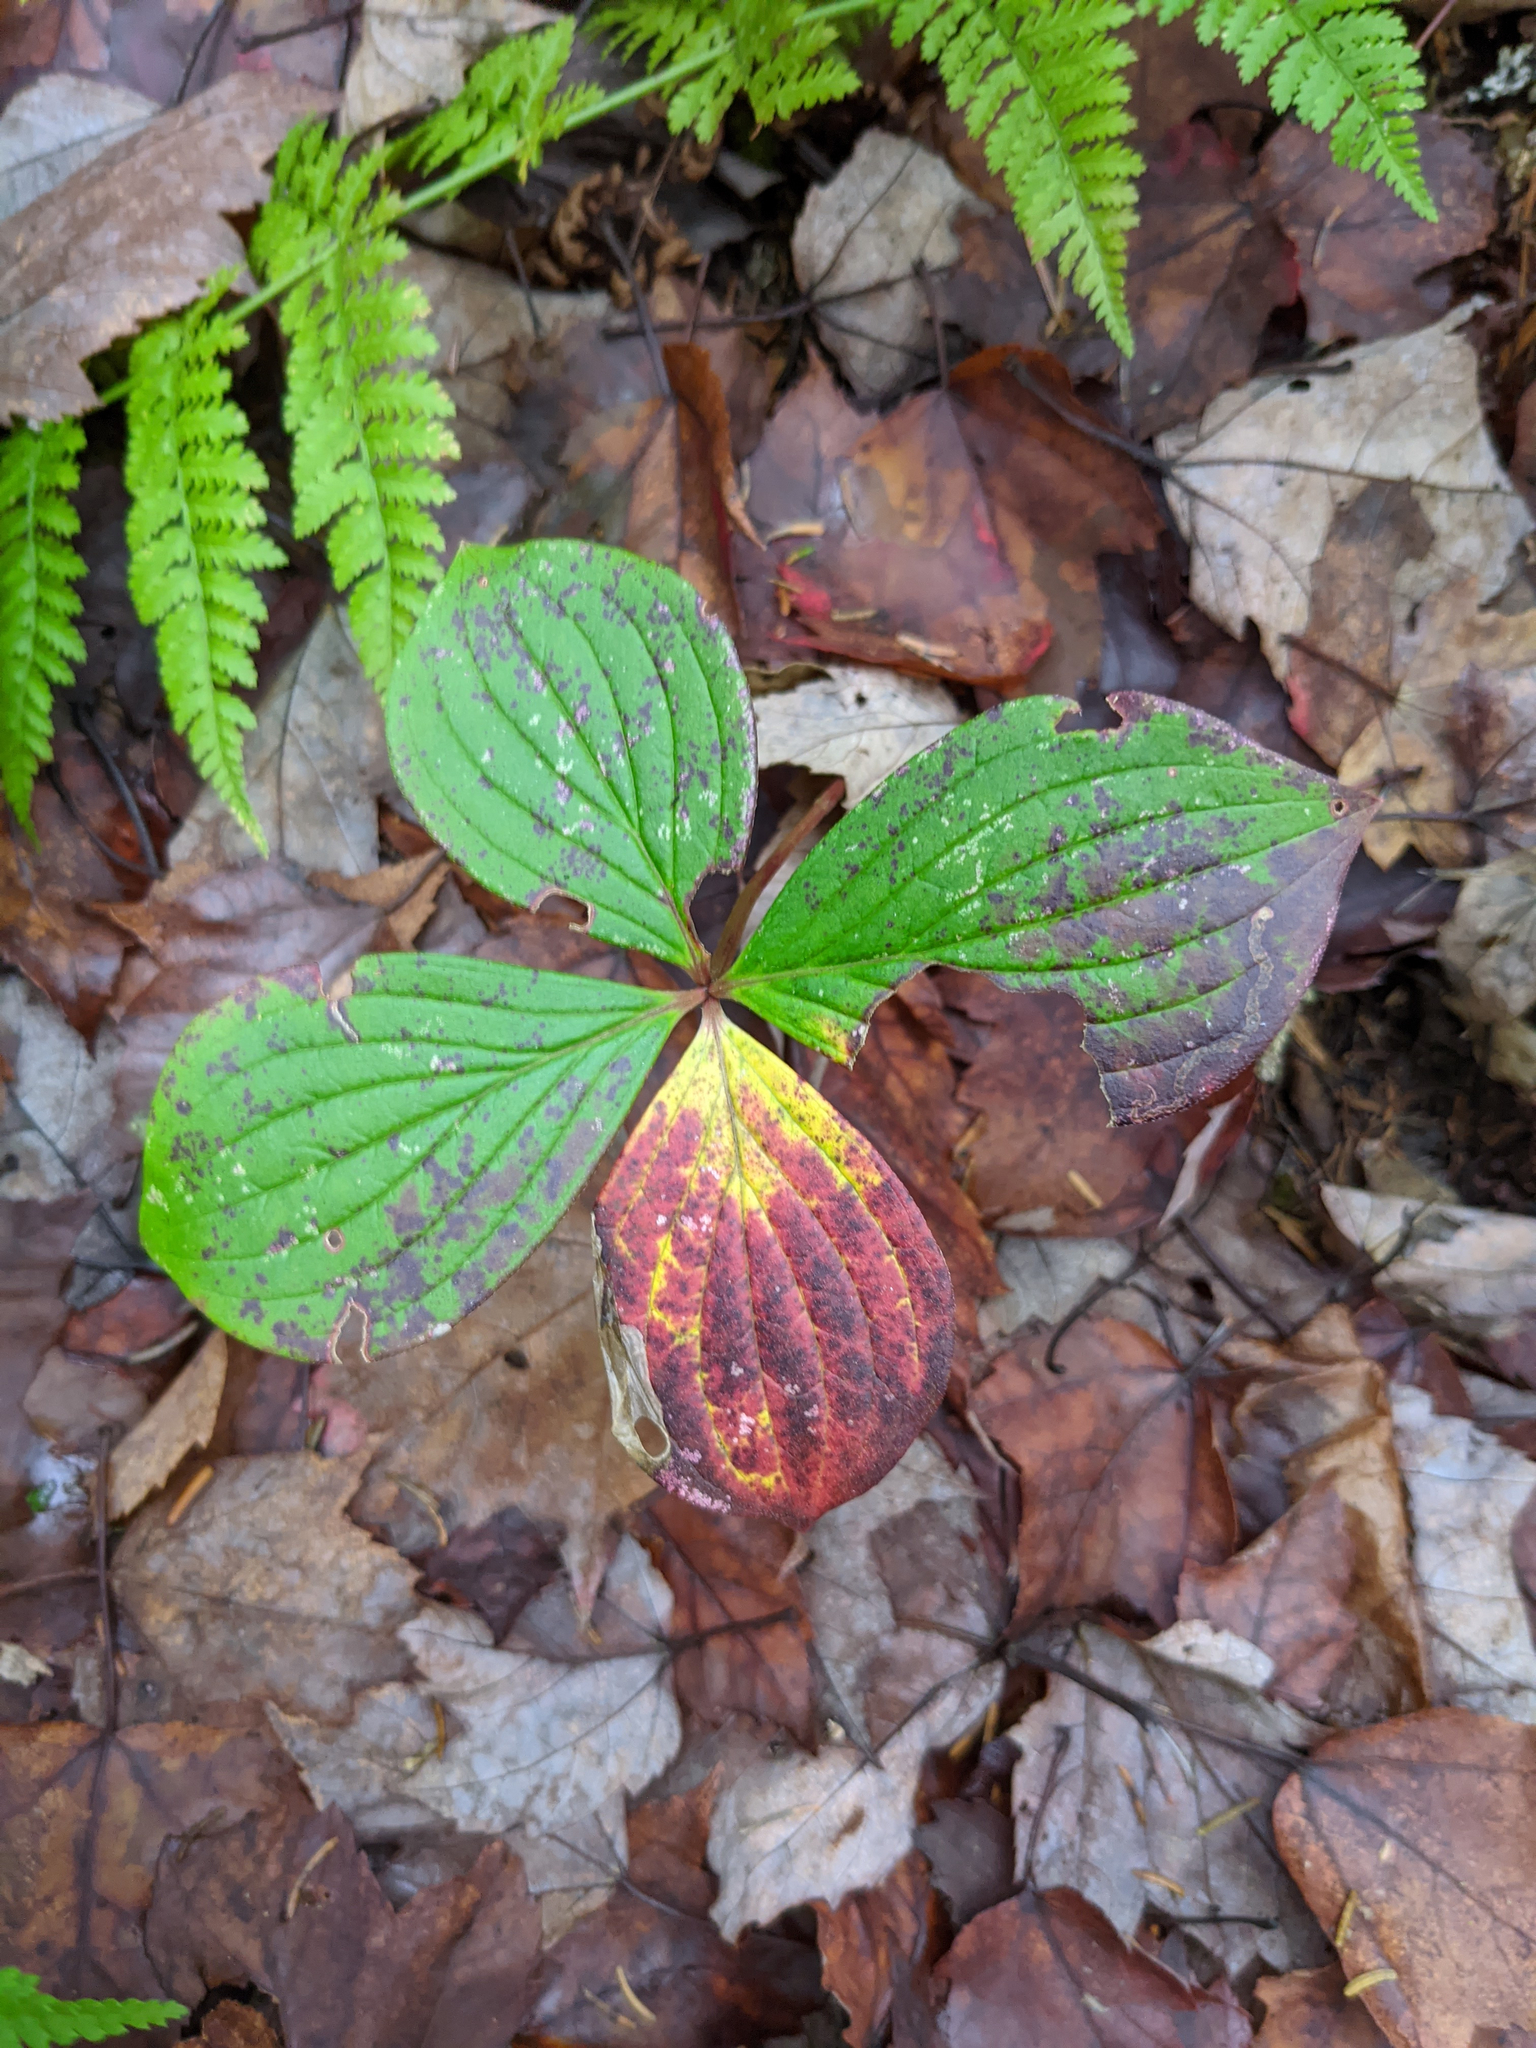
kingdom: Plantae
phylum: Tracheophyta
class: Magnoliopsida
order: Cornales
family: Cornaceae
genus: Cornus
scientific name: Cornus canadensis
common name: Creeping dogwood
